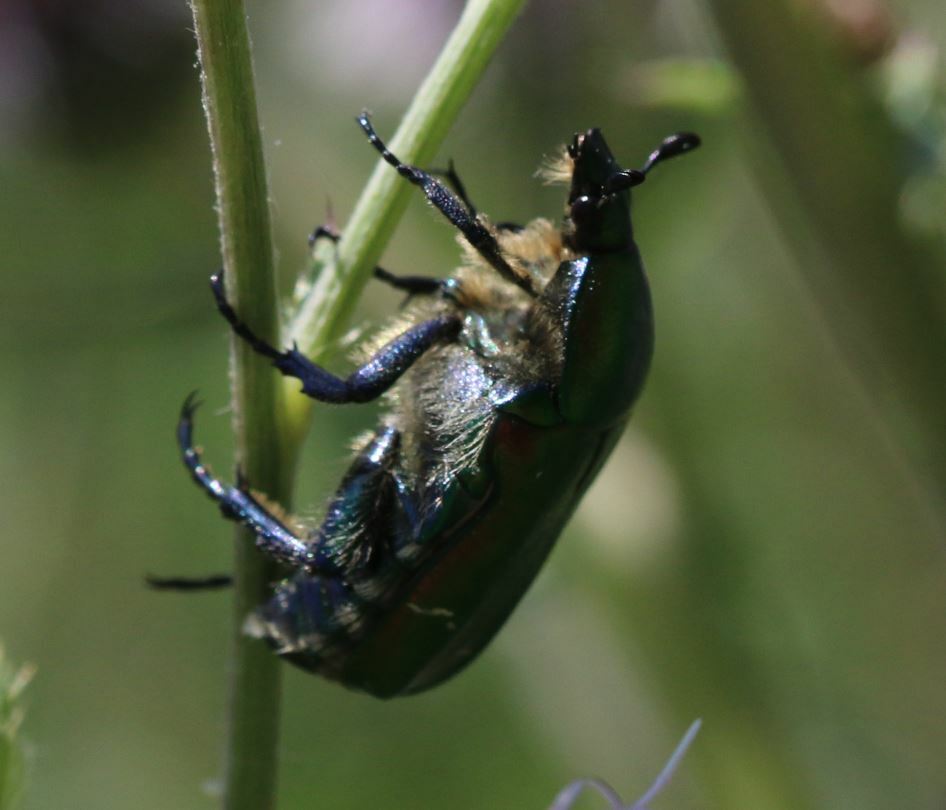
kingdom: Animalia
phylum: Arthropoda
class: Insecta
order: Coleoptera
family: Scarabaeidae
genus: Cetonia
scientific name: Cetonia aurata
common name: Rose chafer
